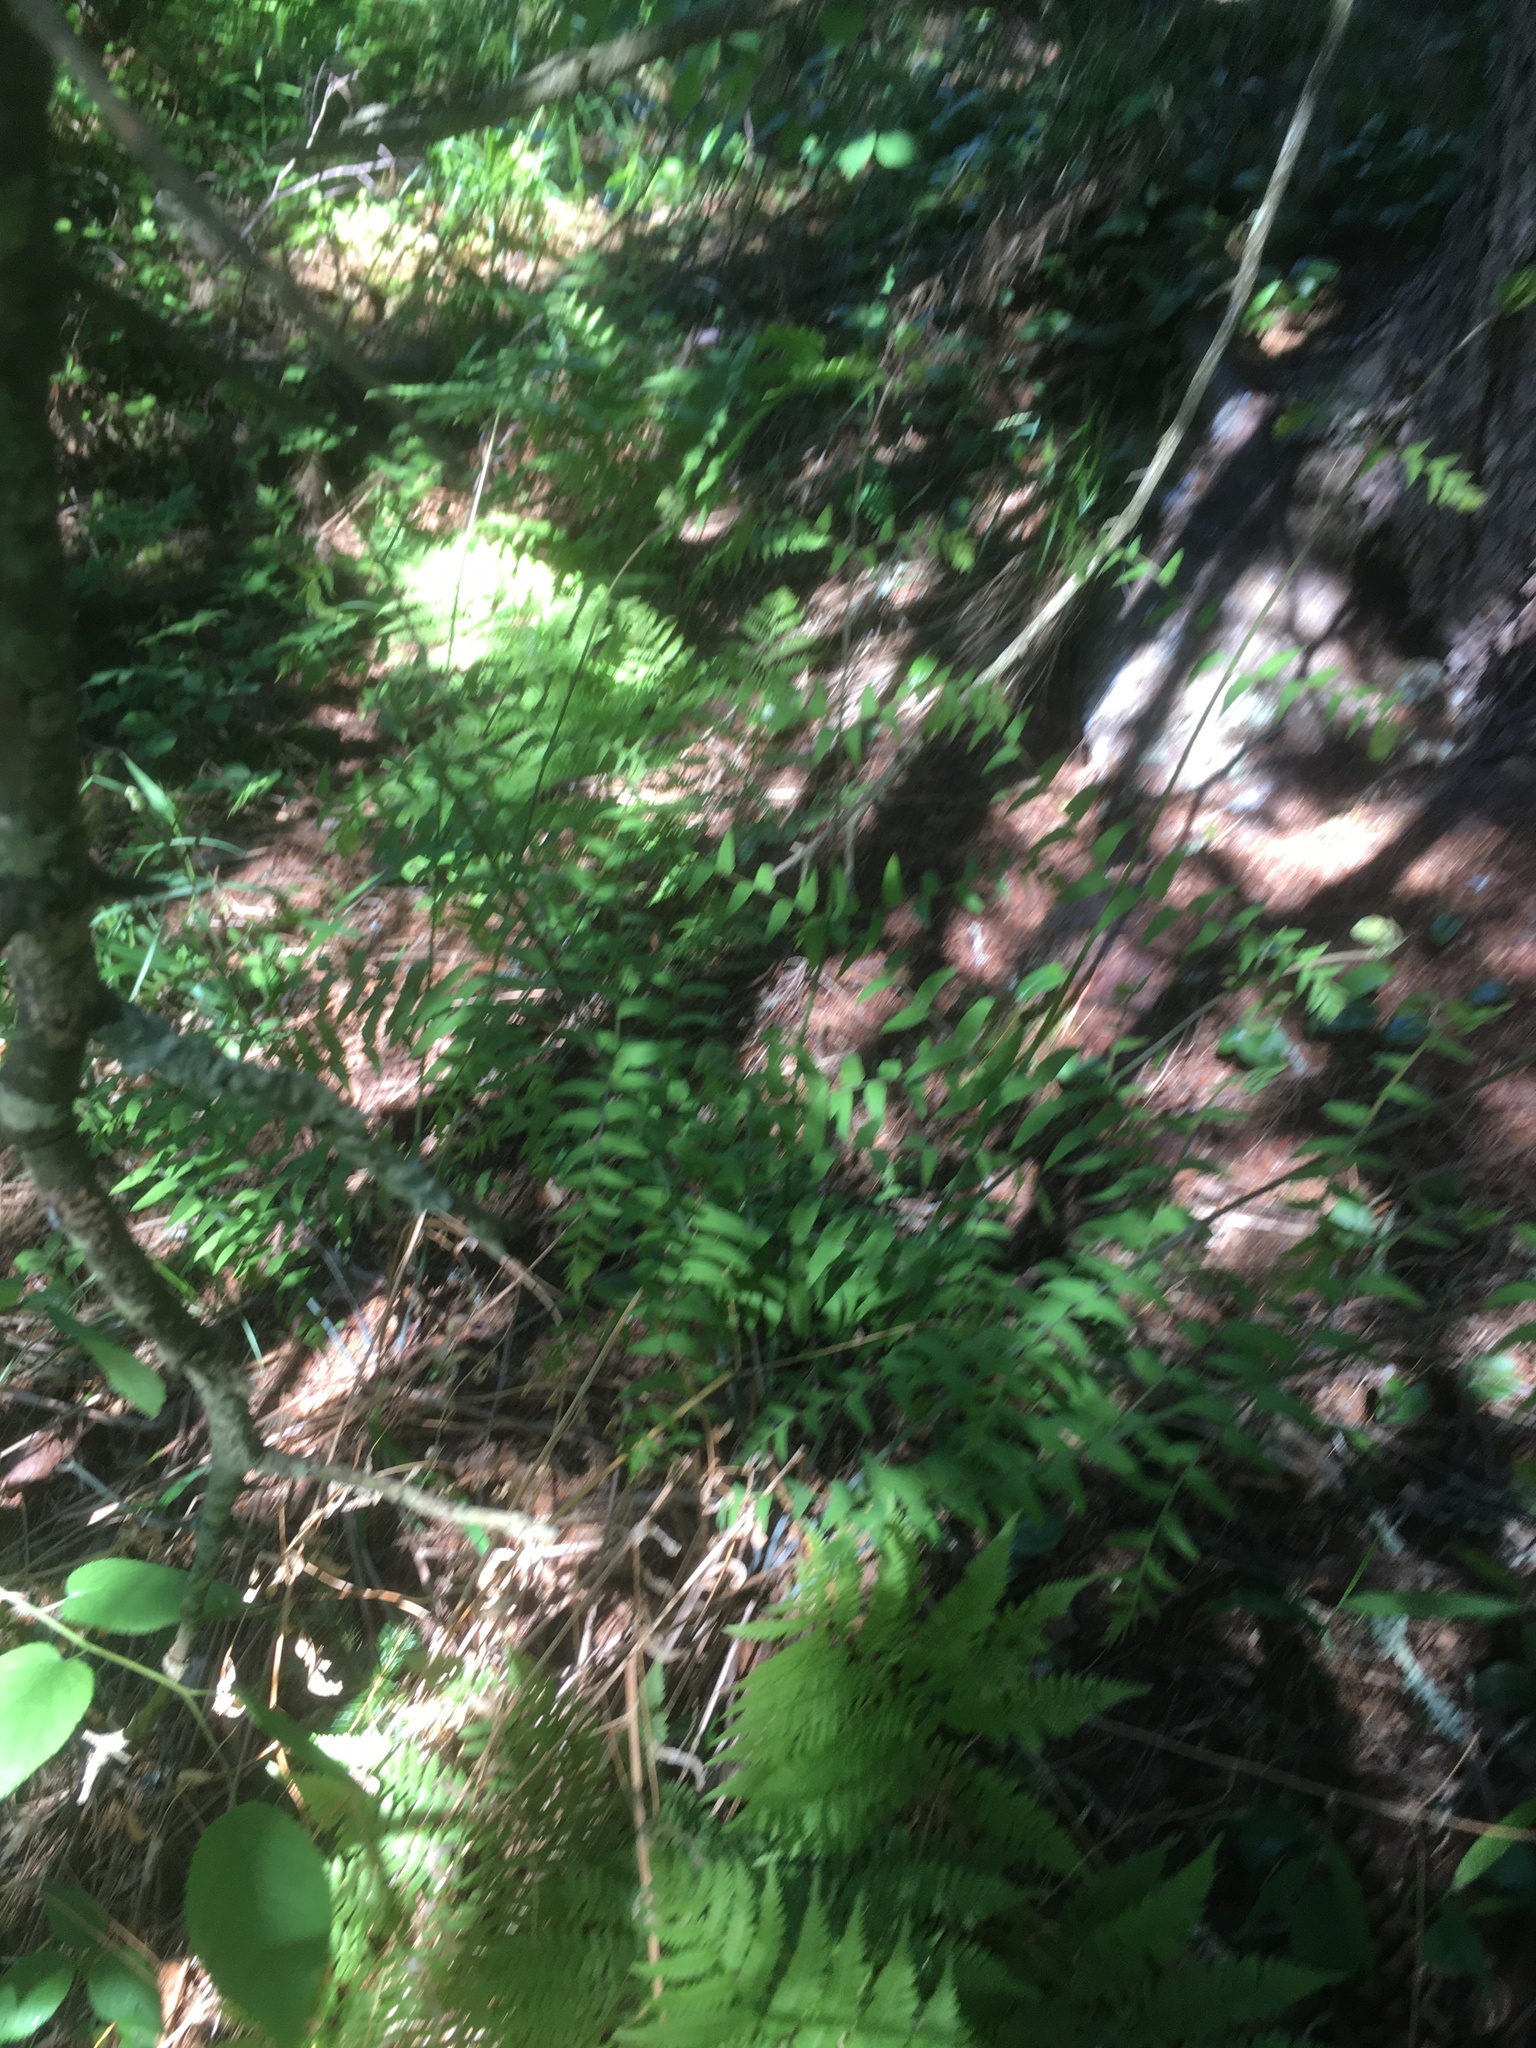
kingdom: Plantae
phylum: Tracheophyta
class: Polypodiopsida
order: Osmundales
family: Osmundaceae
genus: Osmunda
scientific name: Osmunda spectabilis
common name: American royal fern
